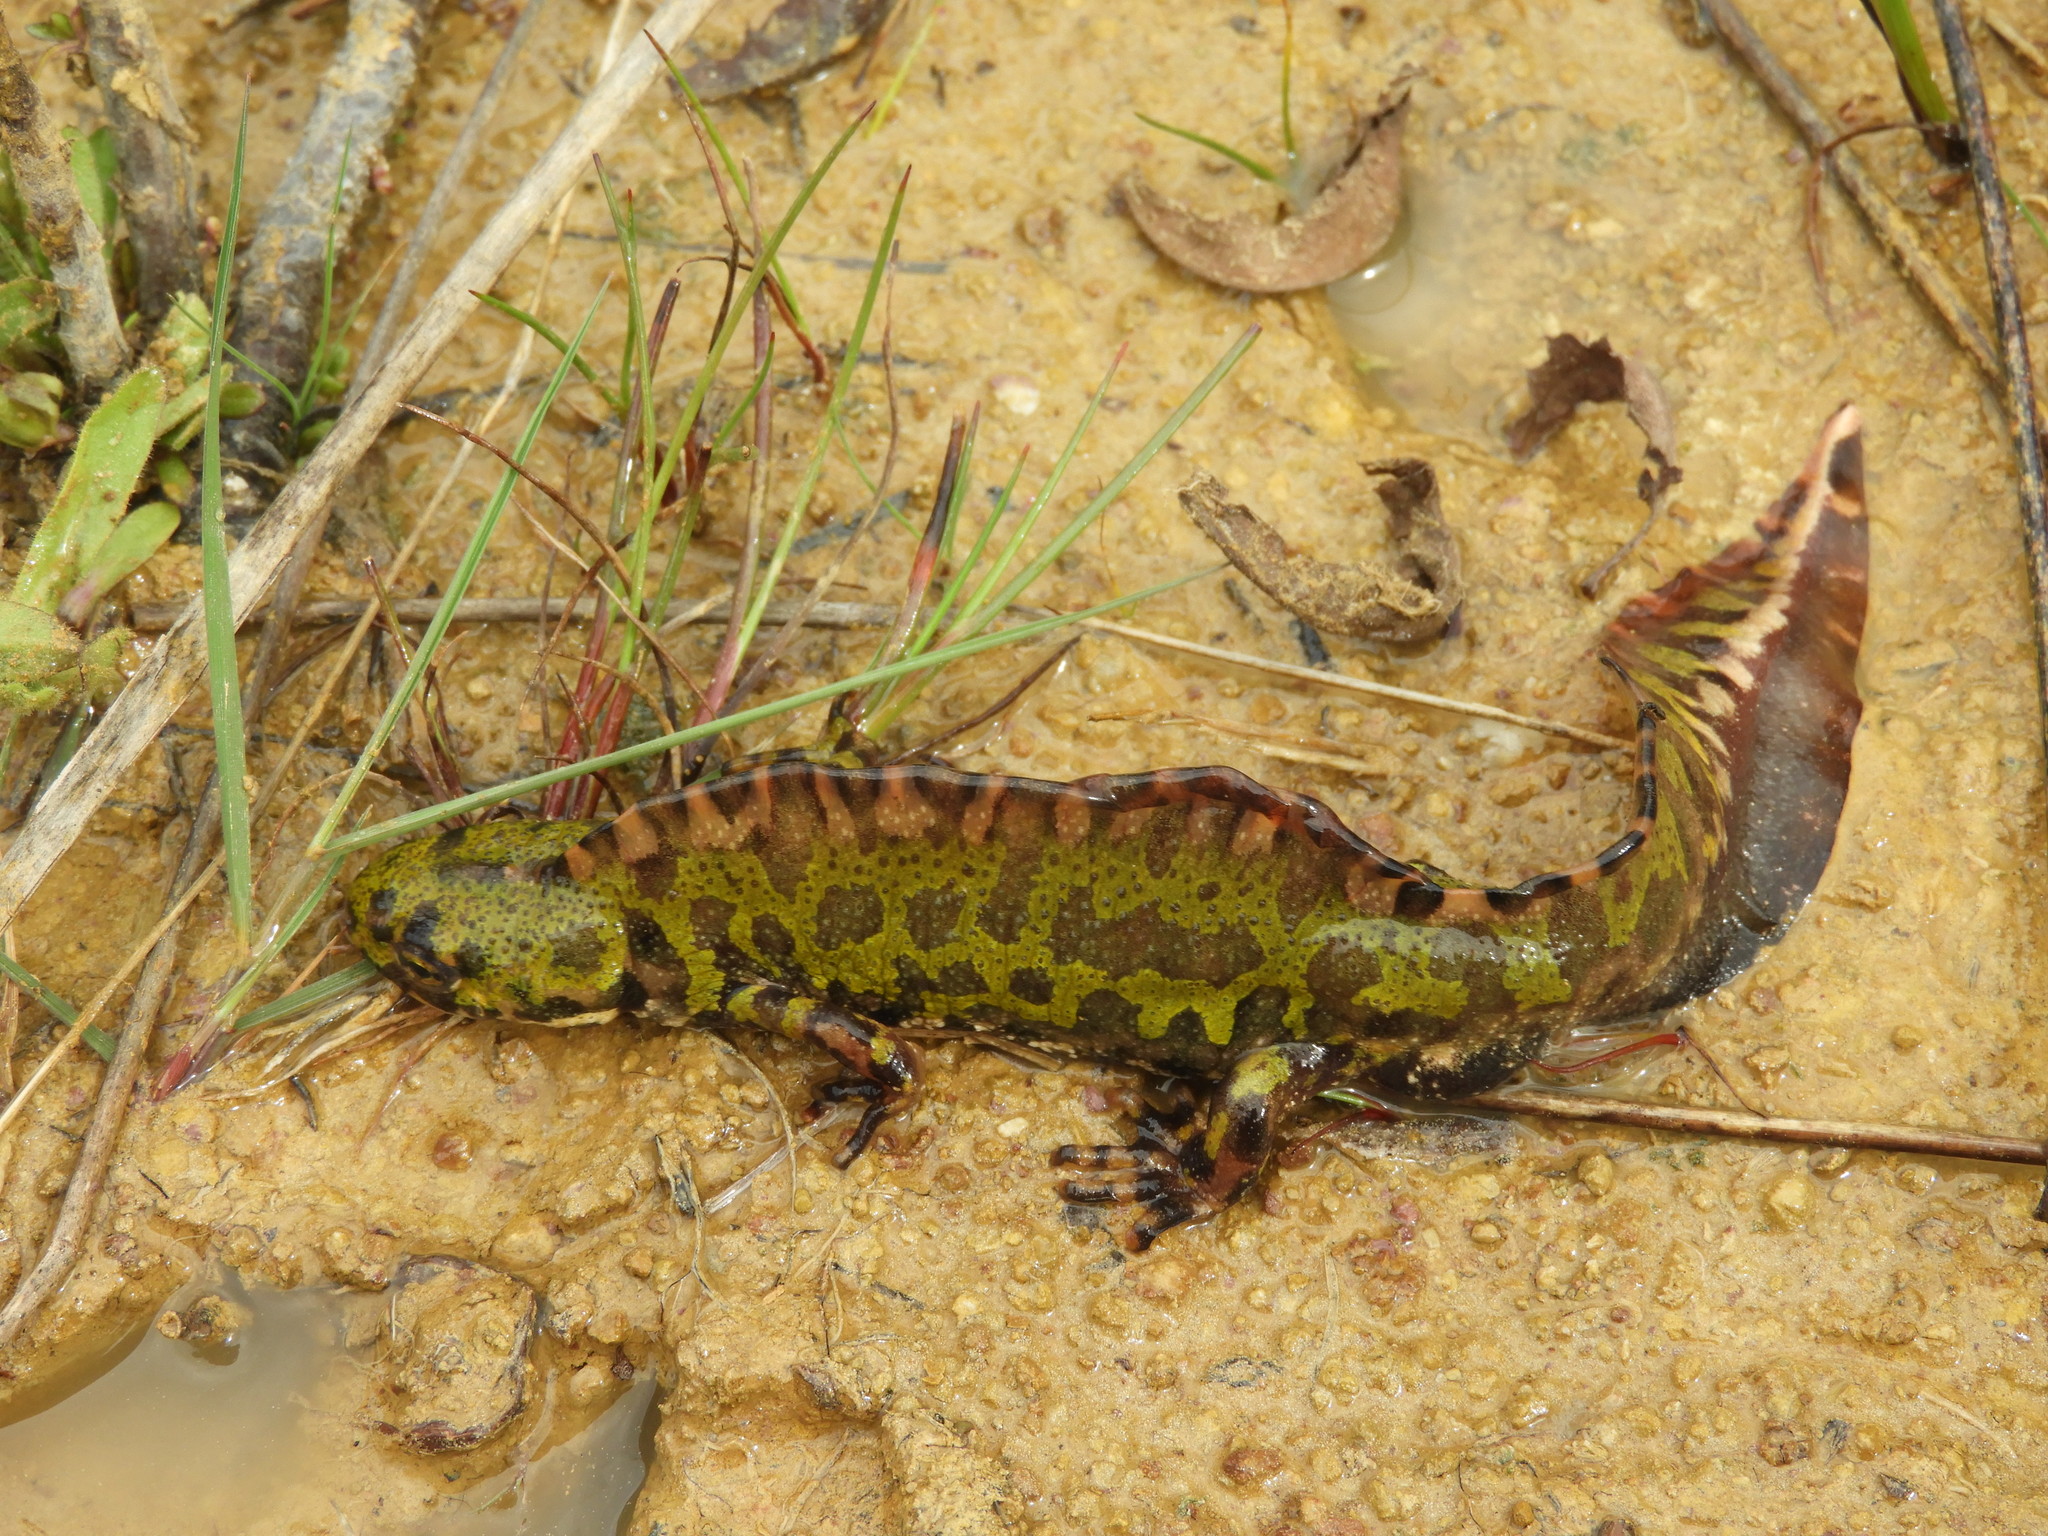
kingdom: Animalia
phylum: Chordata
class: Amphibia
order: Caudata
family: Salamandridae
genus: Triturus
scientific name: Triturus marmoratus
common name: Marbled newt
